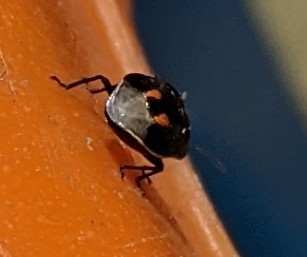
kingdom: Animalia
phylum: Arthropoda
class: Insecta
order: Hemiptera
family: Pentatomidae
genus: Cosmopepla
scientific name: Cosmopepla lintneriana
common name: Twice-stabbed stink bug
